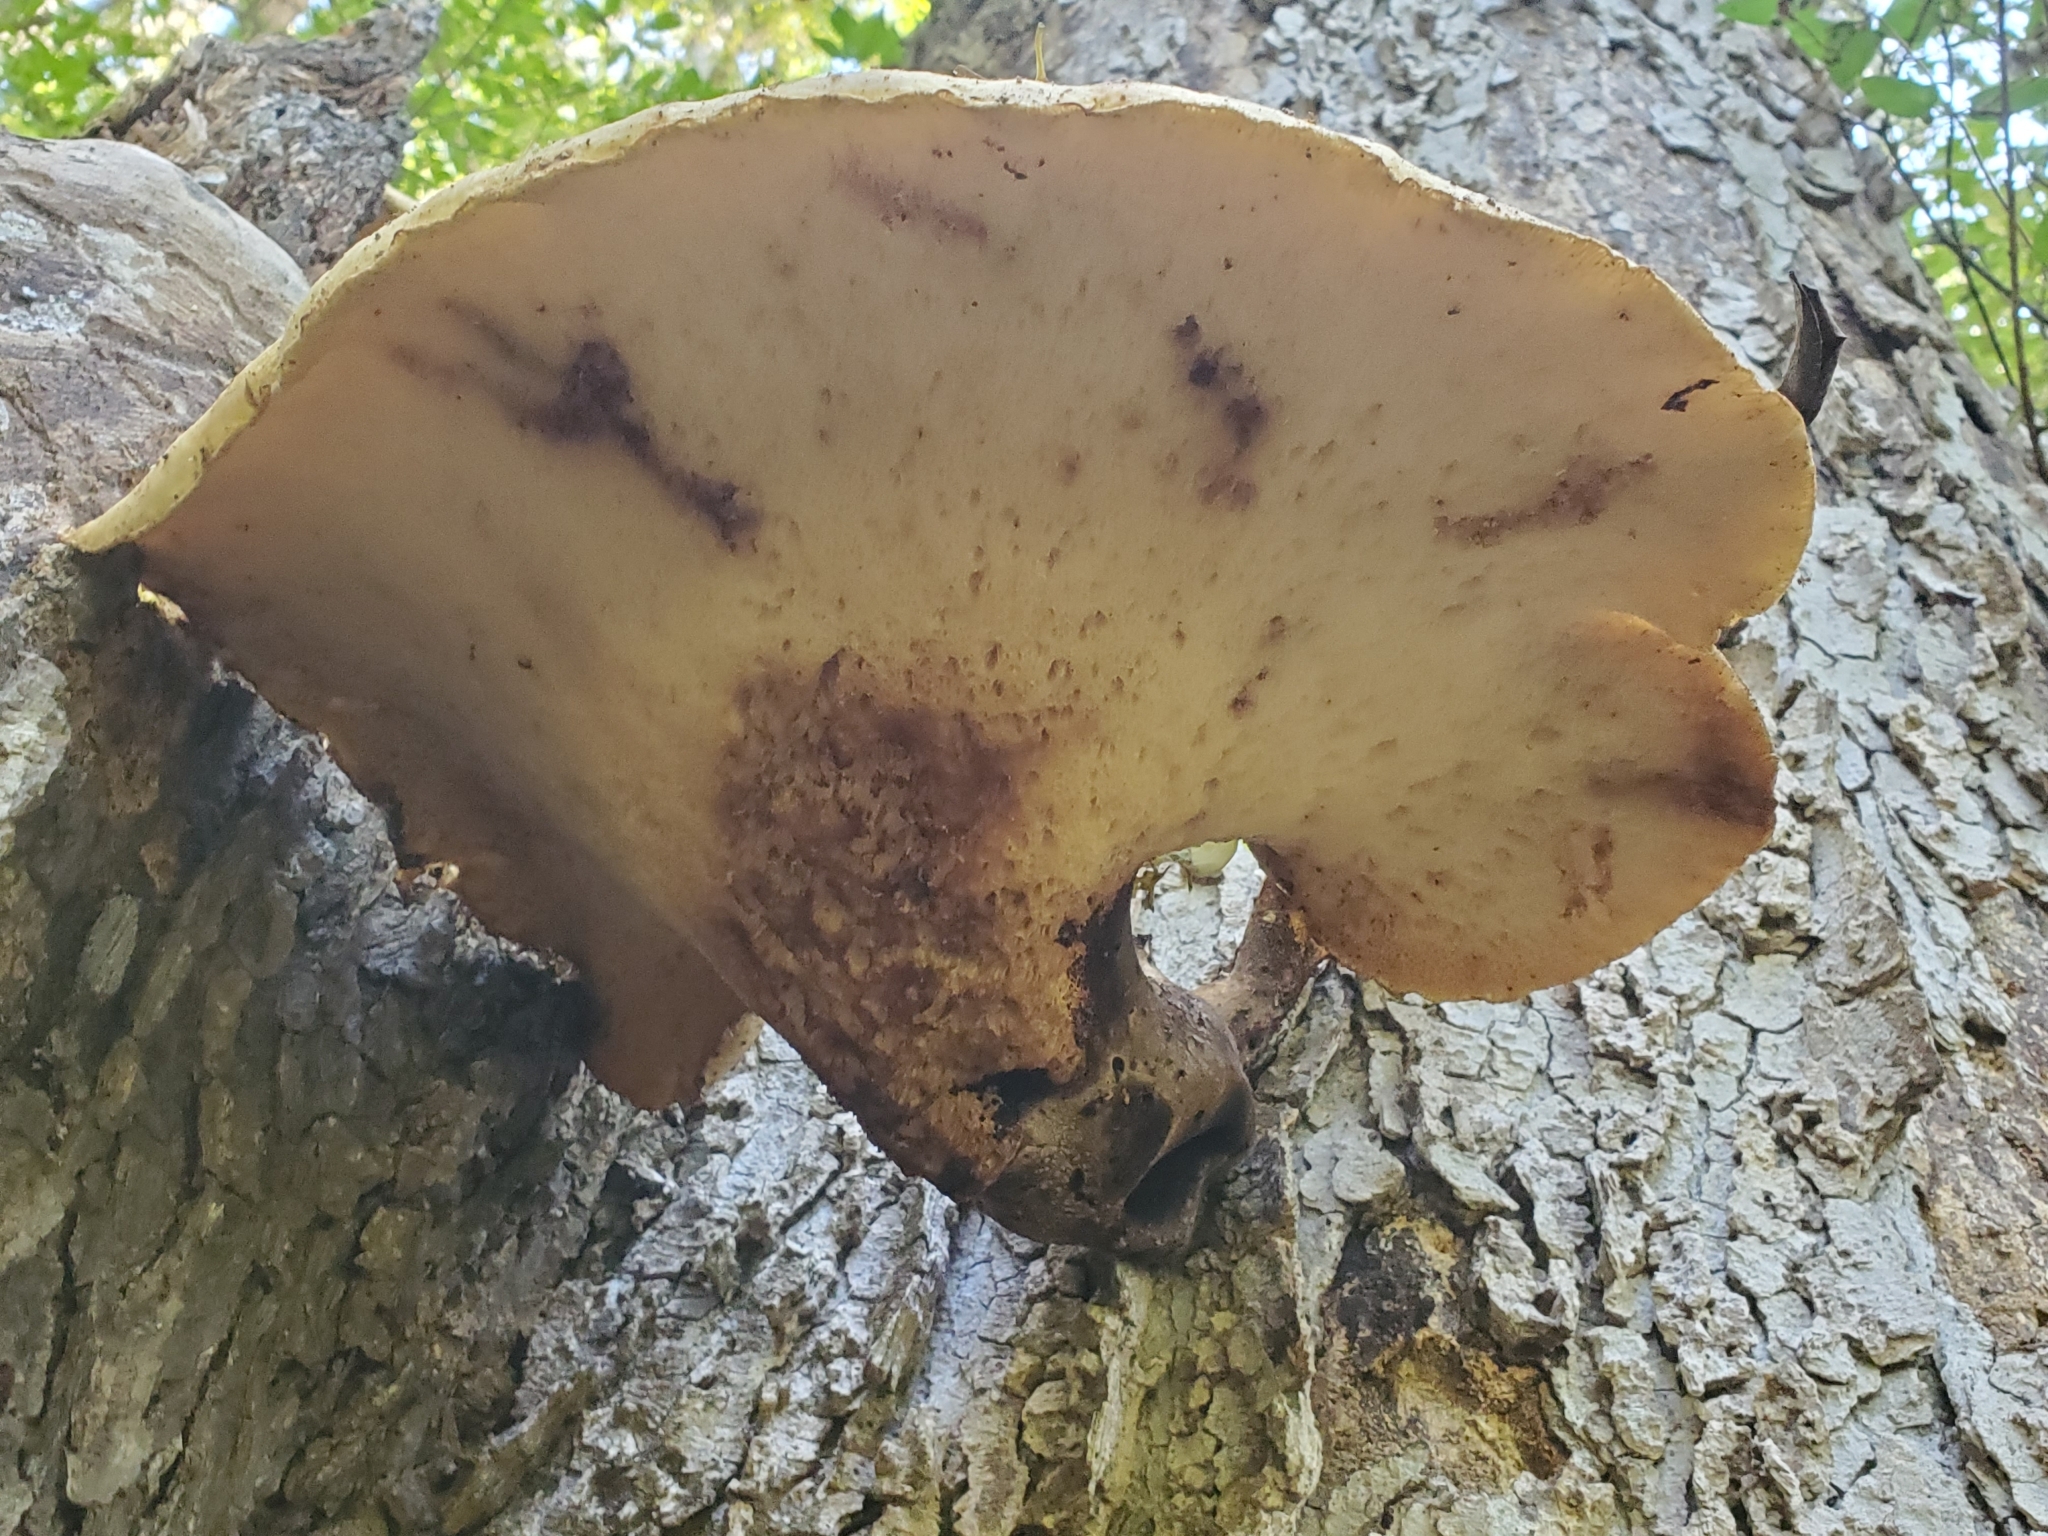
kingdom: Fungi
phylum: Basidiomycota
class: Agaricomycetes
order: Polyporales
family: Polyporaceae
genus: Cerioporus
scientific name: Cerioporus squamosus
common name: Dryad's saddle
